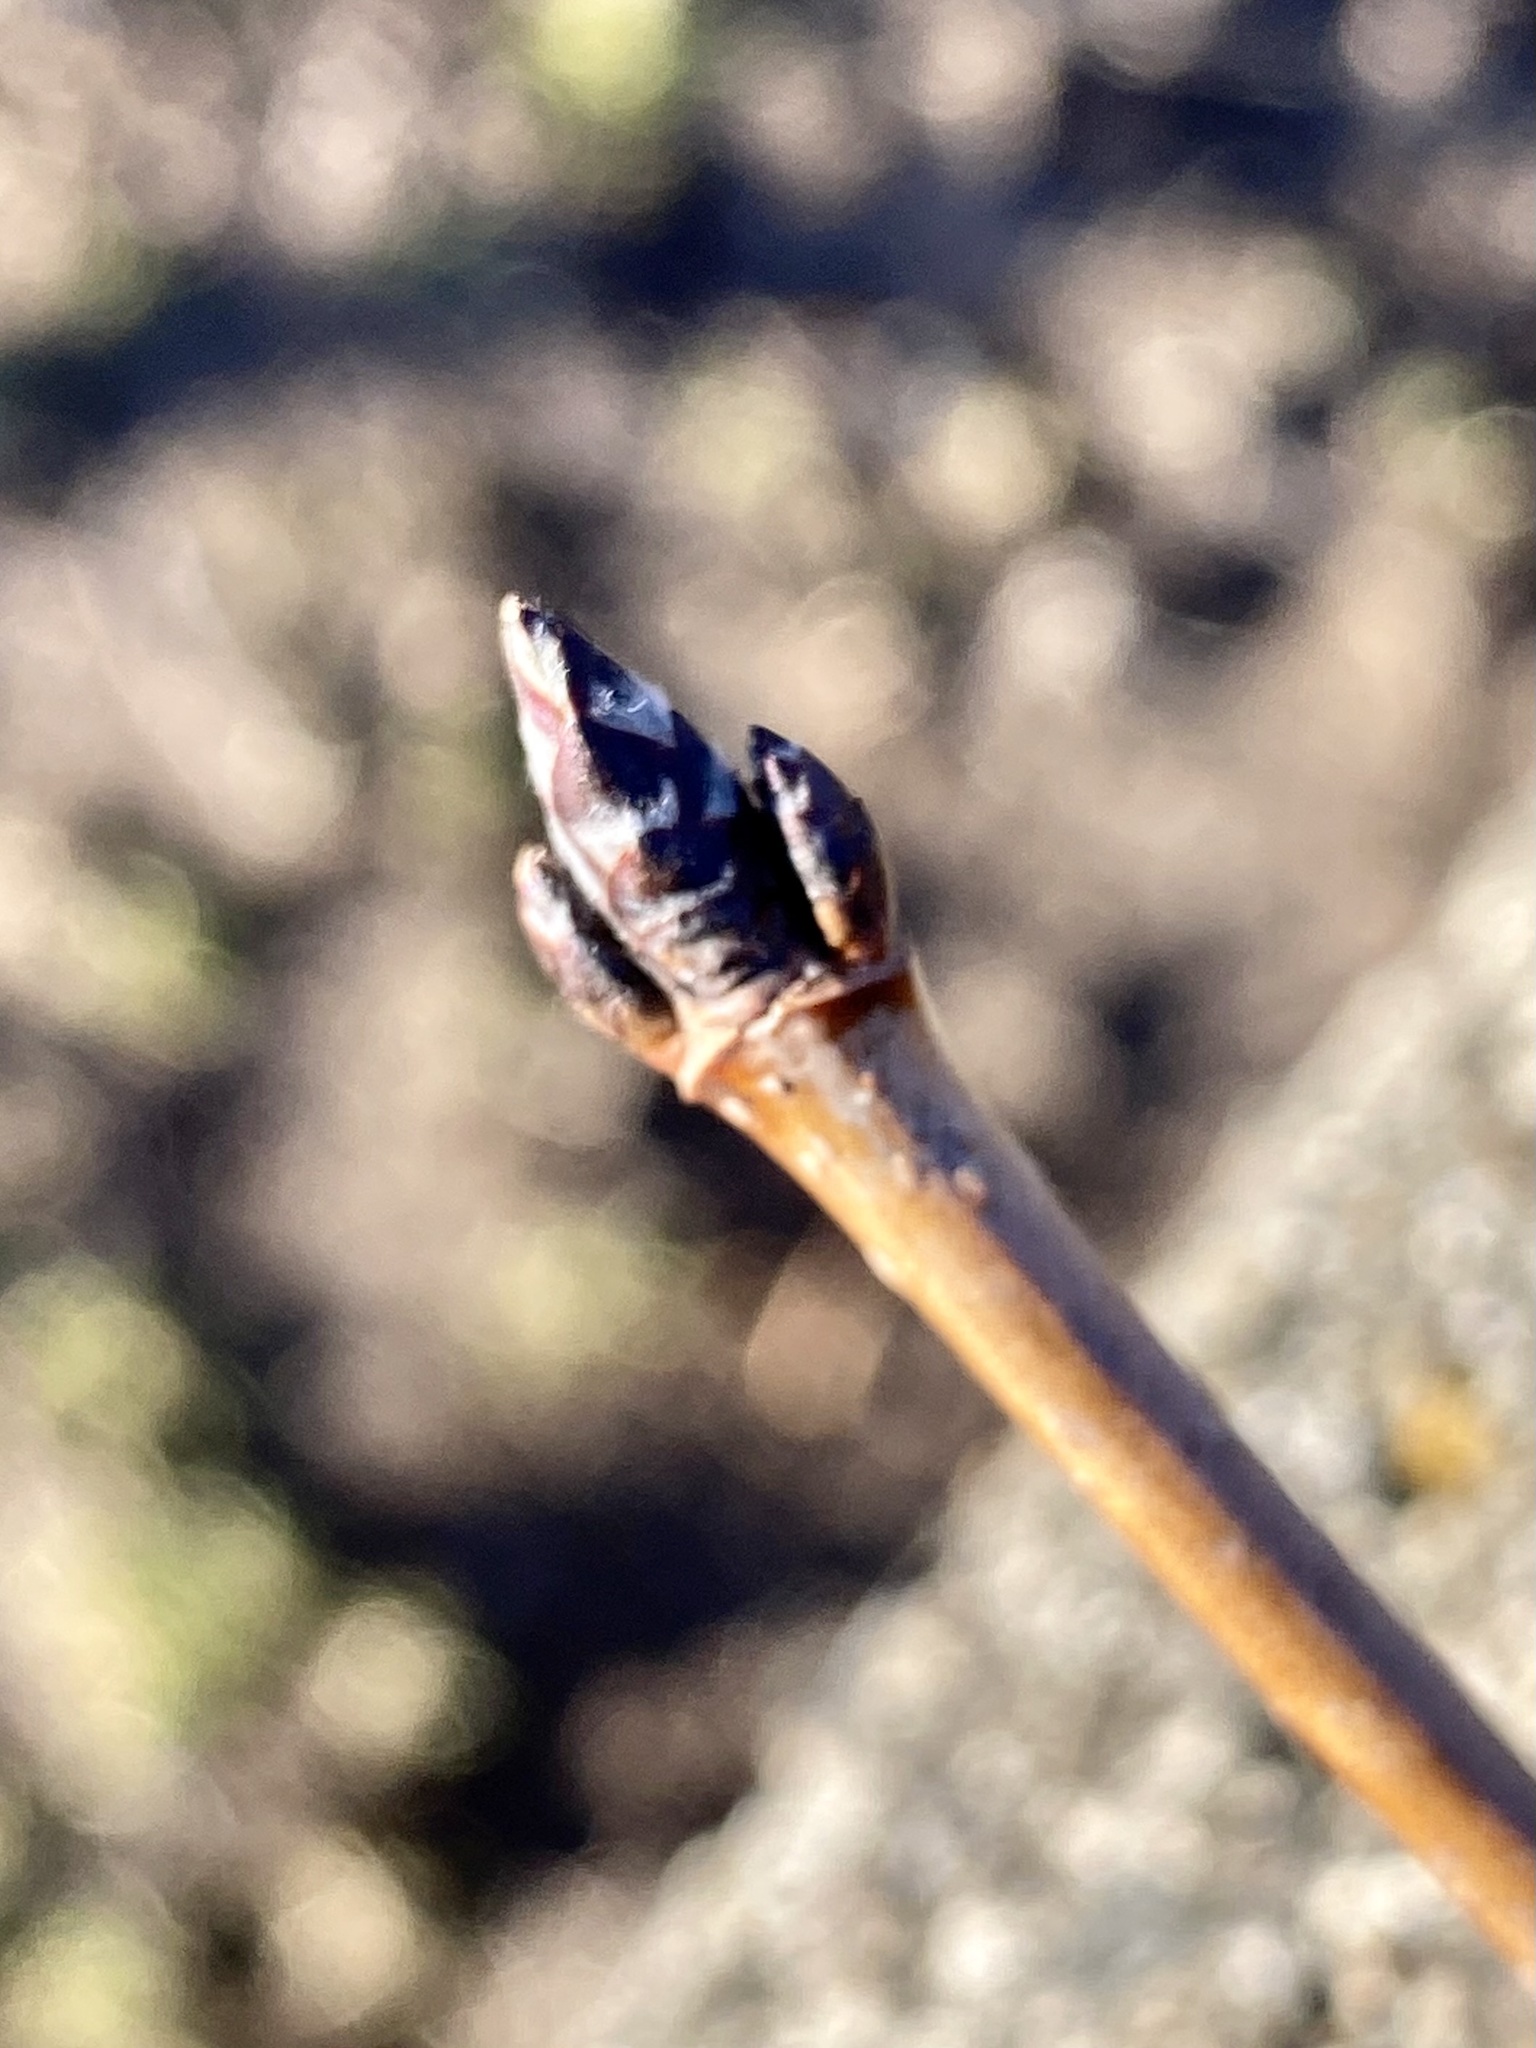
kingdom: Plantae
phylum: Tracheophyta
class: Magnoliopsida
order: Sapindales
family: Sapindaceae
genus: Acer
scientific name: Acer saccharum
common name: Sugar maple
